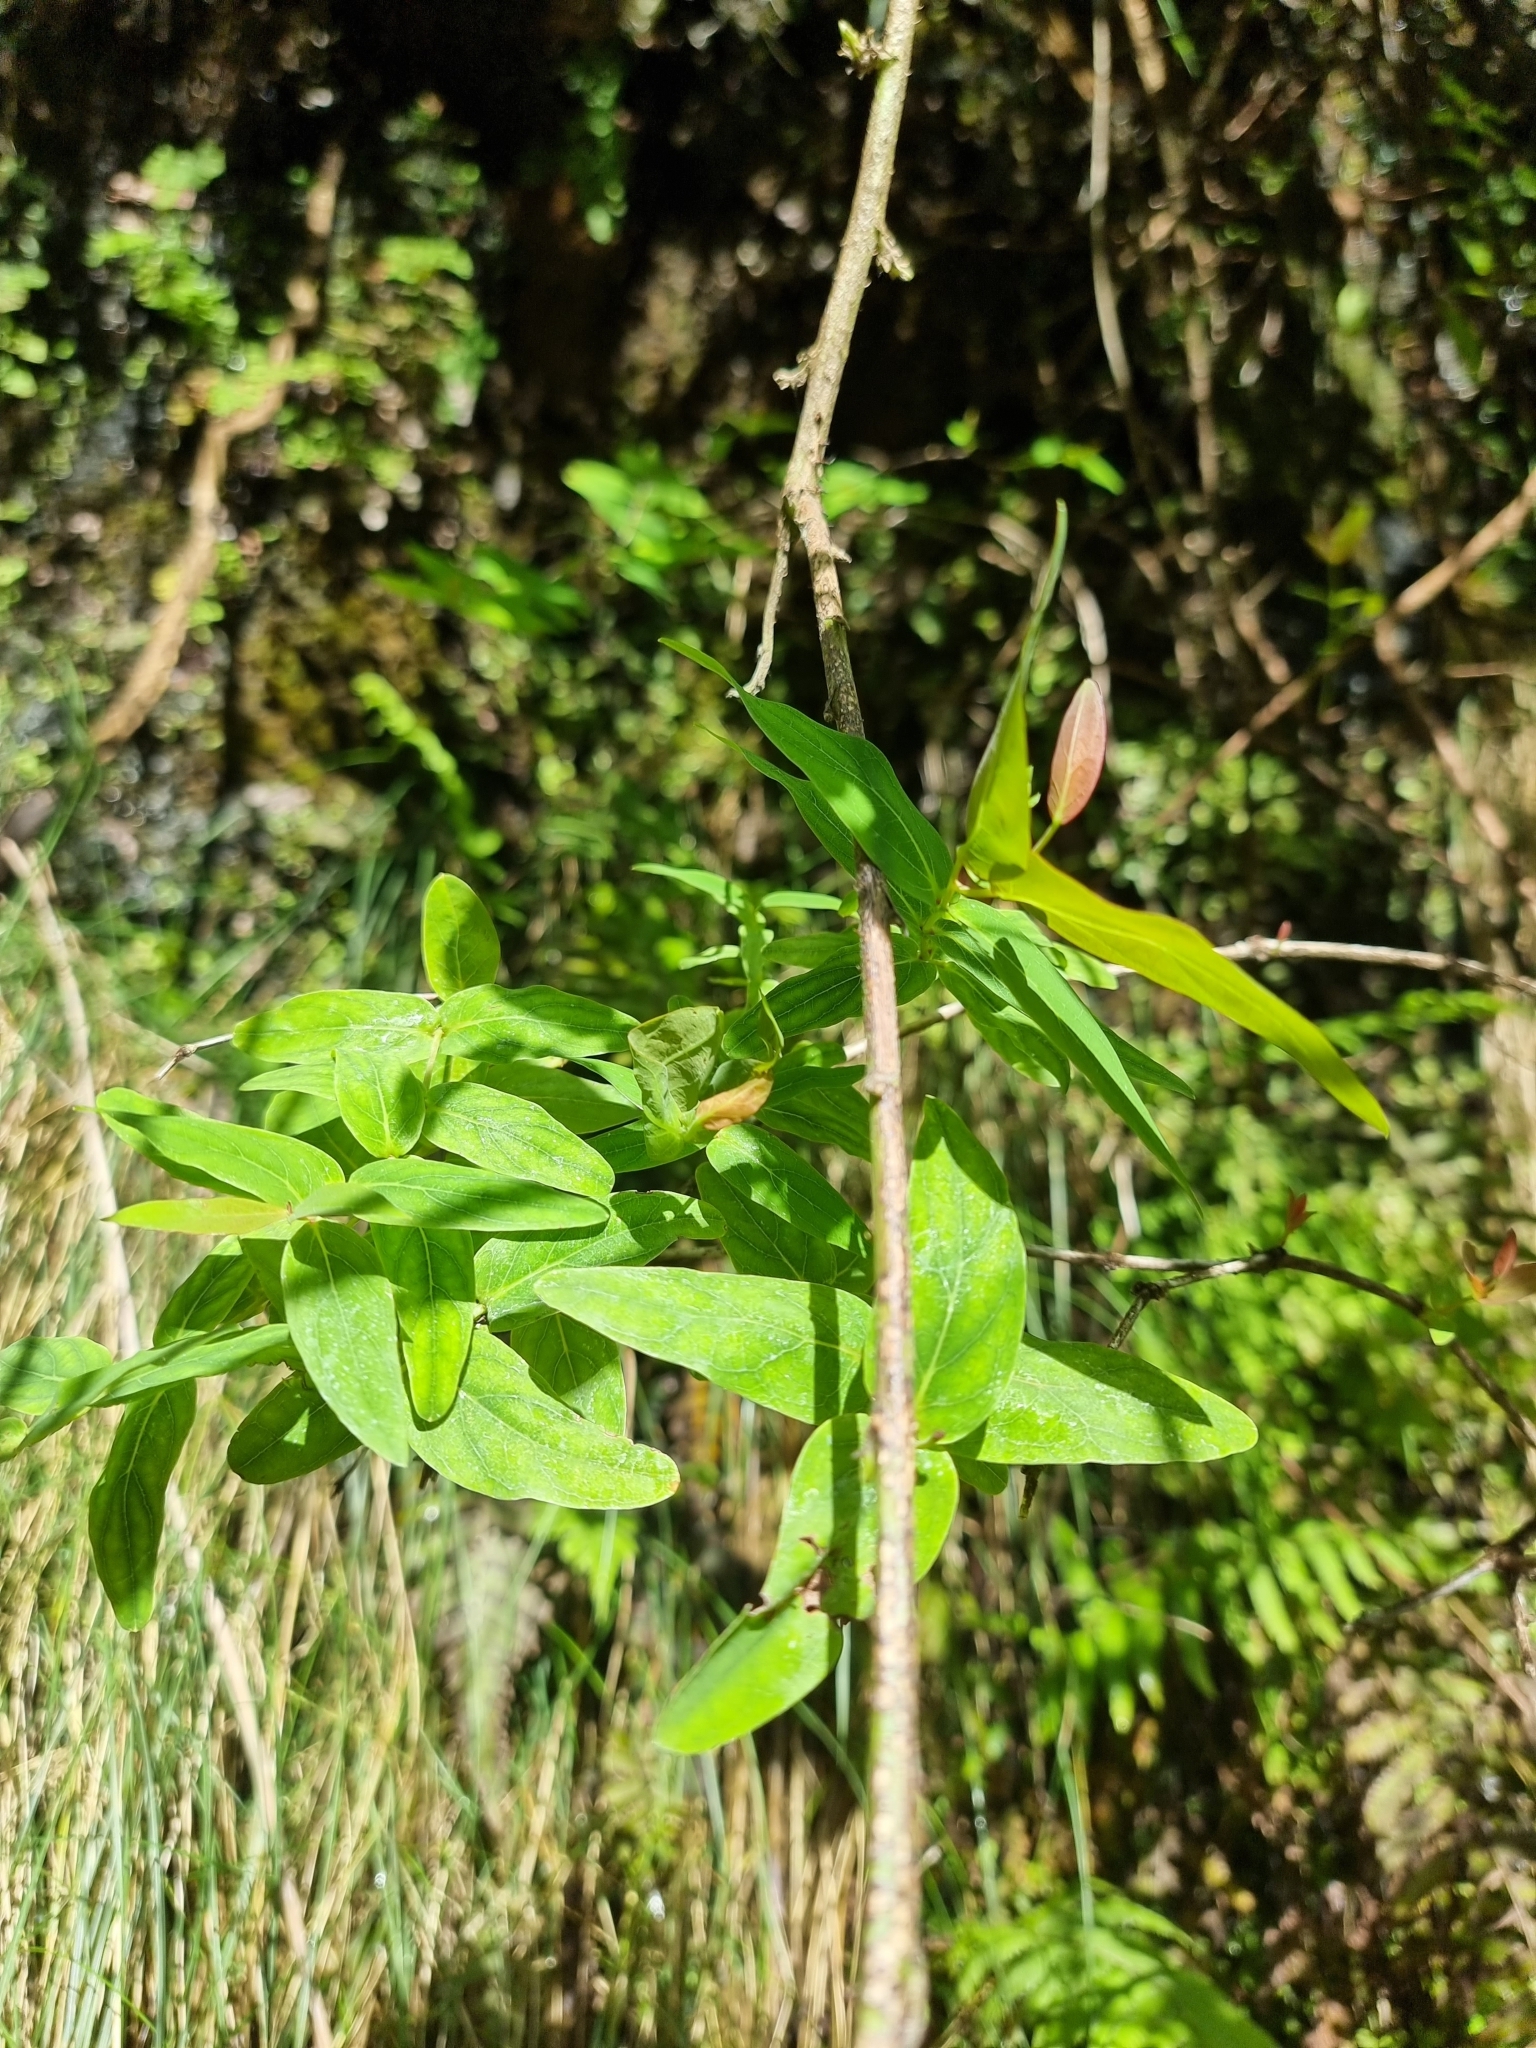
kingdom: Plantae
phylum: Tracheophyta
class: Magnoliopsida
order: Malpighiales
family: Hypericaceae
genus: Hypericum
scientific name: Hypericum grandifolium
